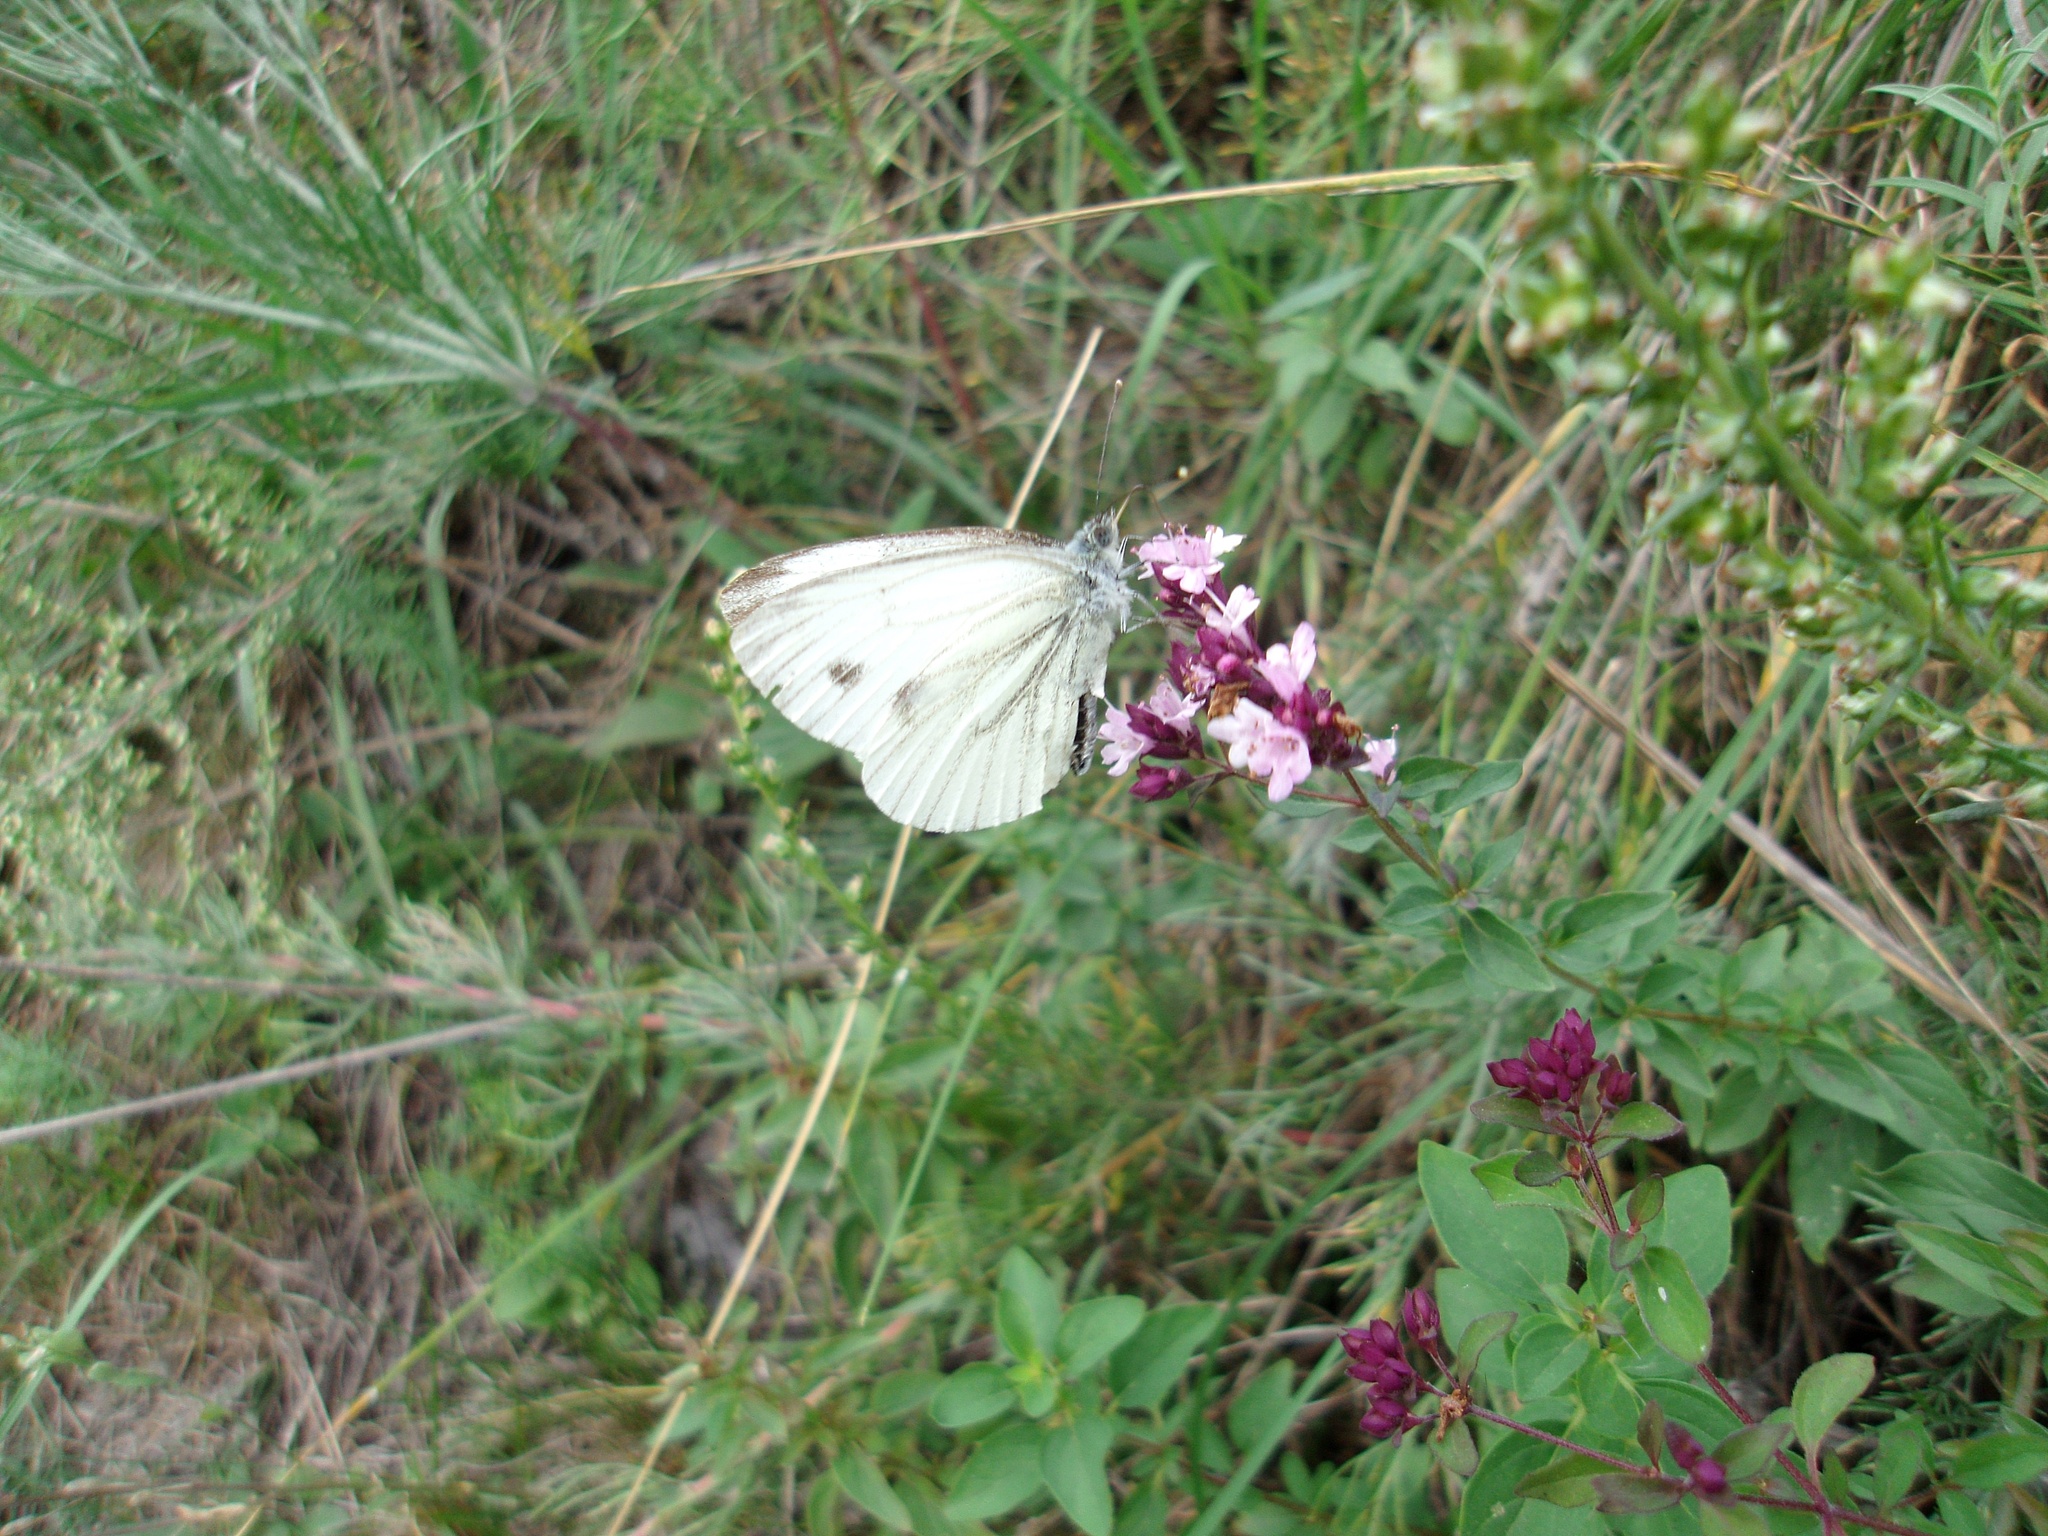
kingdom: Animalia
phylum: Arthropoda
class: Insecta
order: Lepidoptera
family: Pieridae
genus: Pieris
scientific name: Pieris napi
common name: Green-veined white
